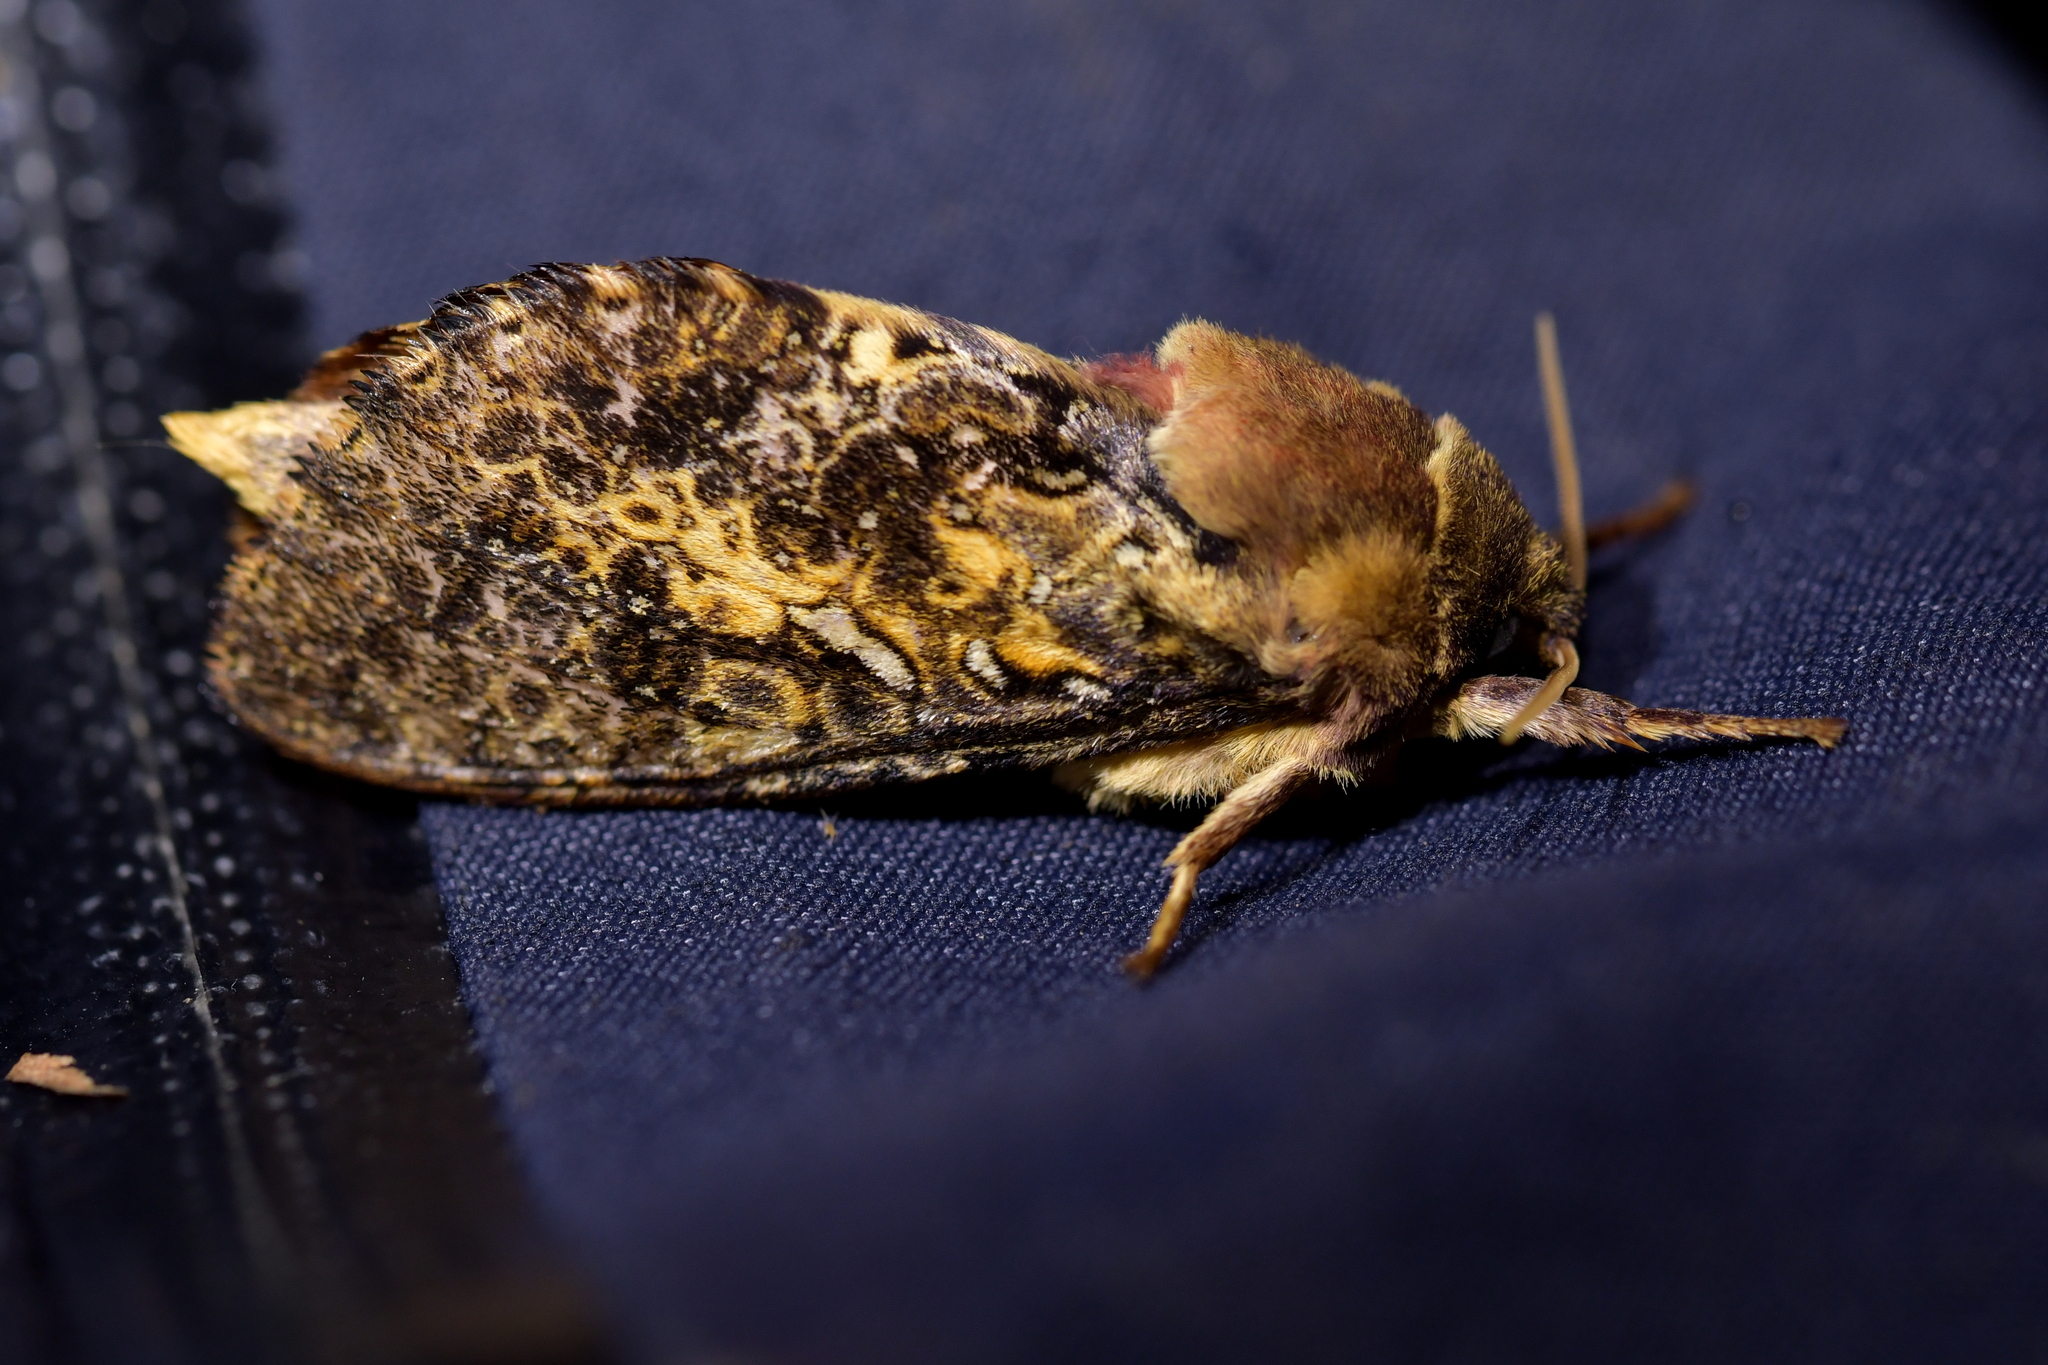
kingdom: Animalia
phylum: Arthropoda
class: Insecta
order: Lepidoptera
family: Hepialidae
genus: Dumbletonius
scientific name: Dumbletonius unimaculata
